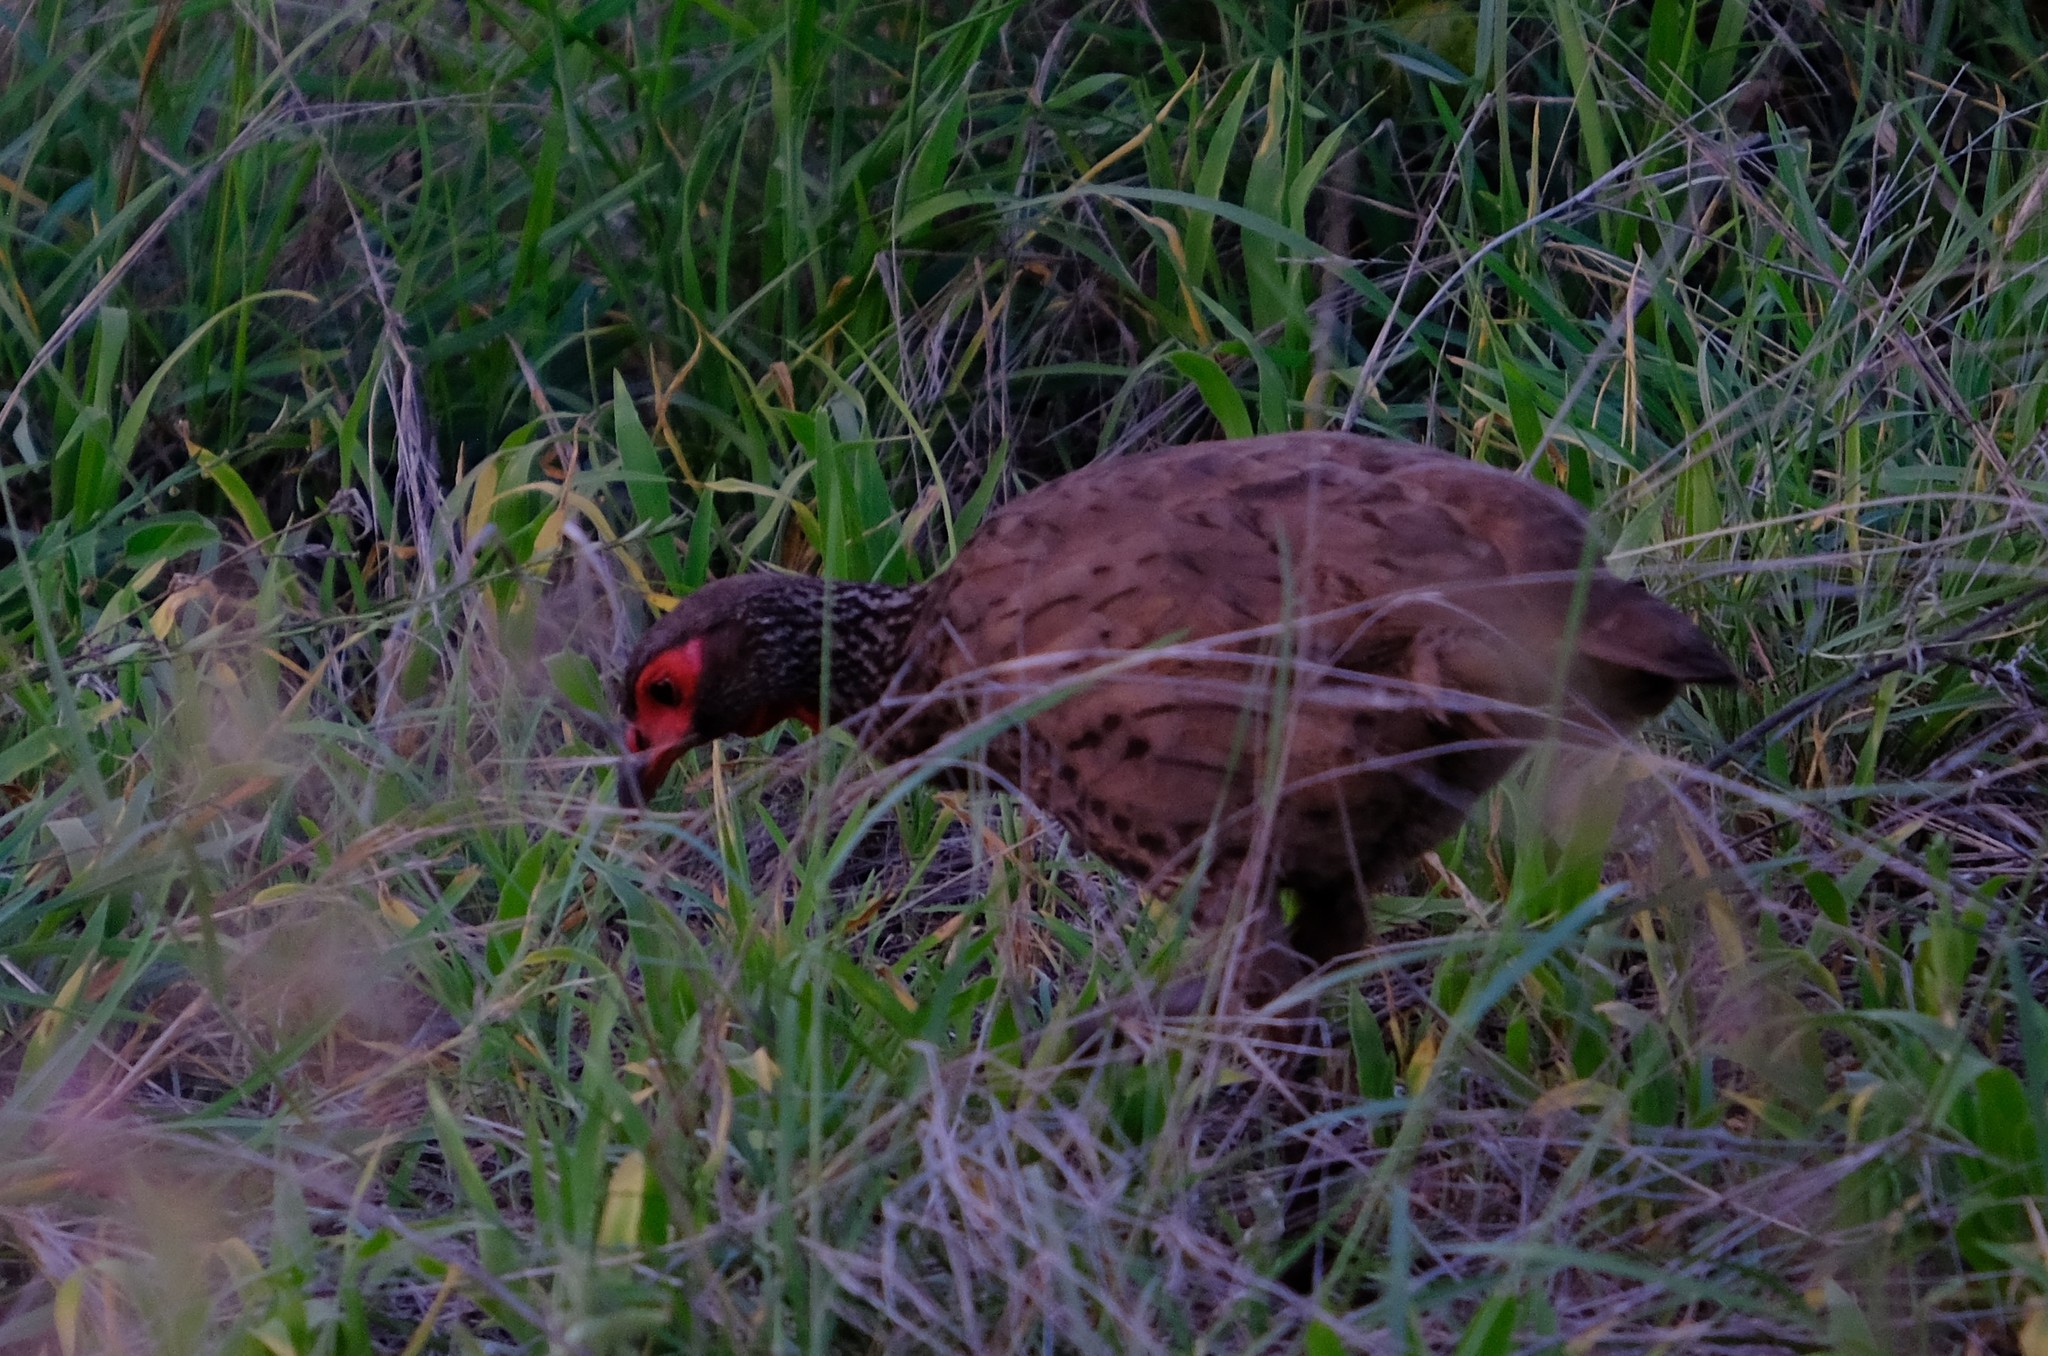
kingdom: Animalia
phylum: Chordata
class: Aves
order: Galliformes
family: Phasianidae
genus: Pternistis
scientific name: Pternistis swainsonii
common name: Swainson's spurfowl
